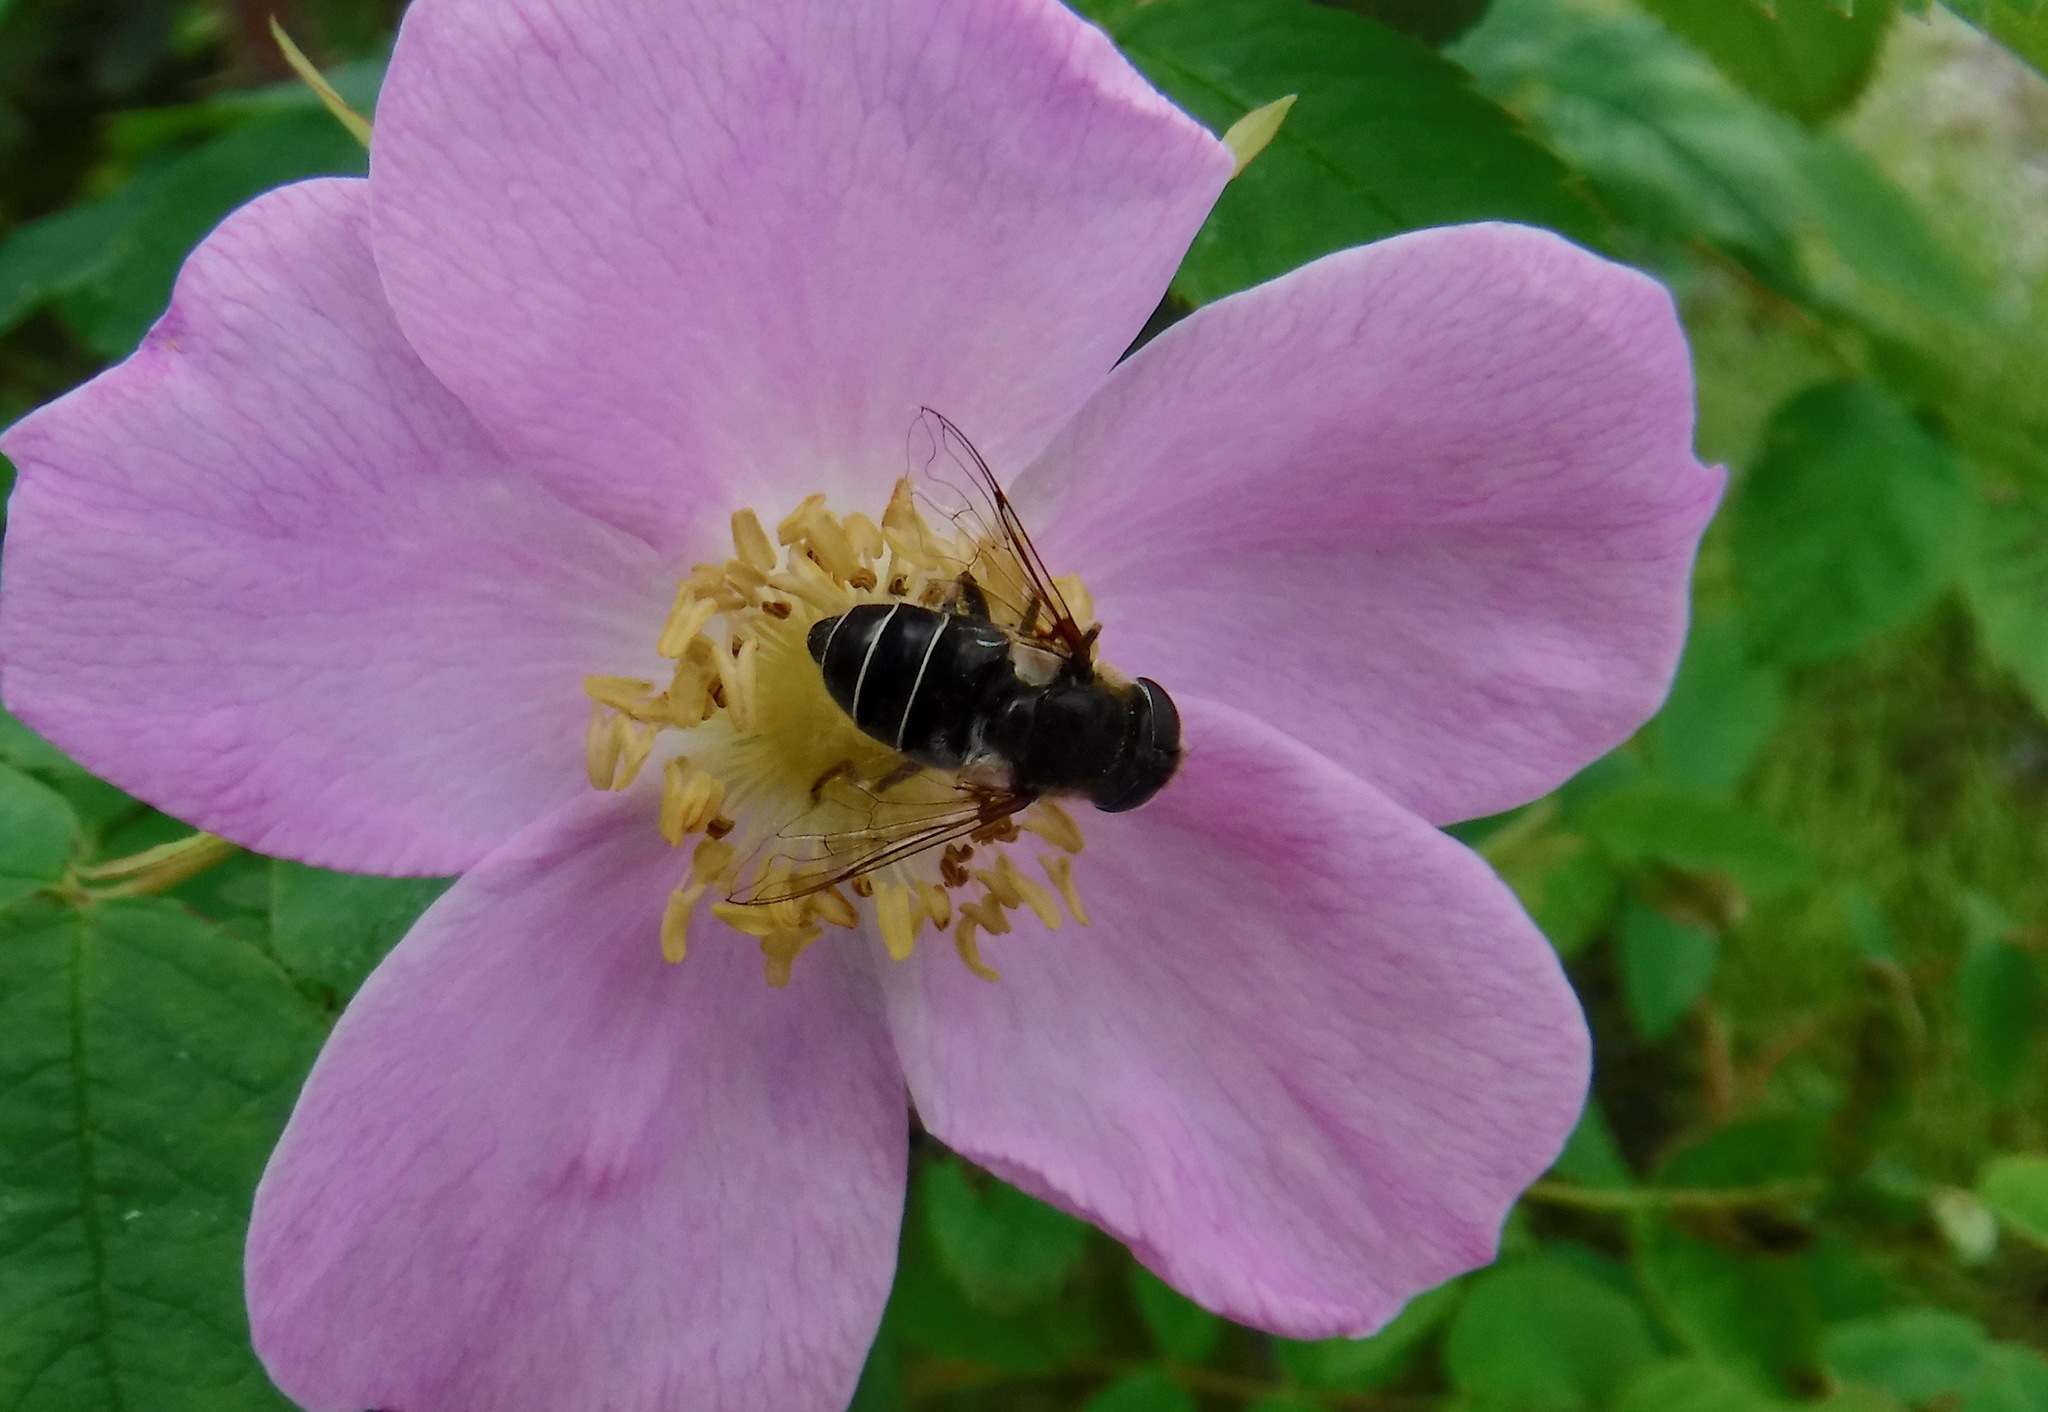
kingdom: Animalia
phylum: Arthropoda
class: Insecta
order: Diptera
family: Syrphidae
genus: Eristalis
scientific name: Eristalis dimidiata
